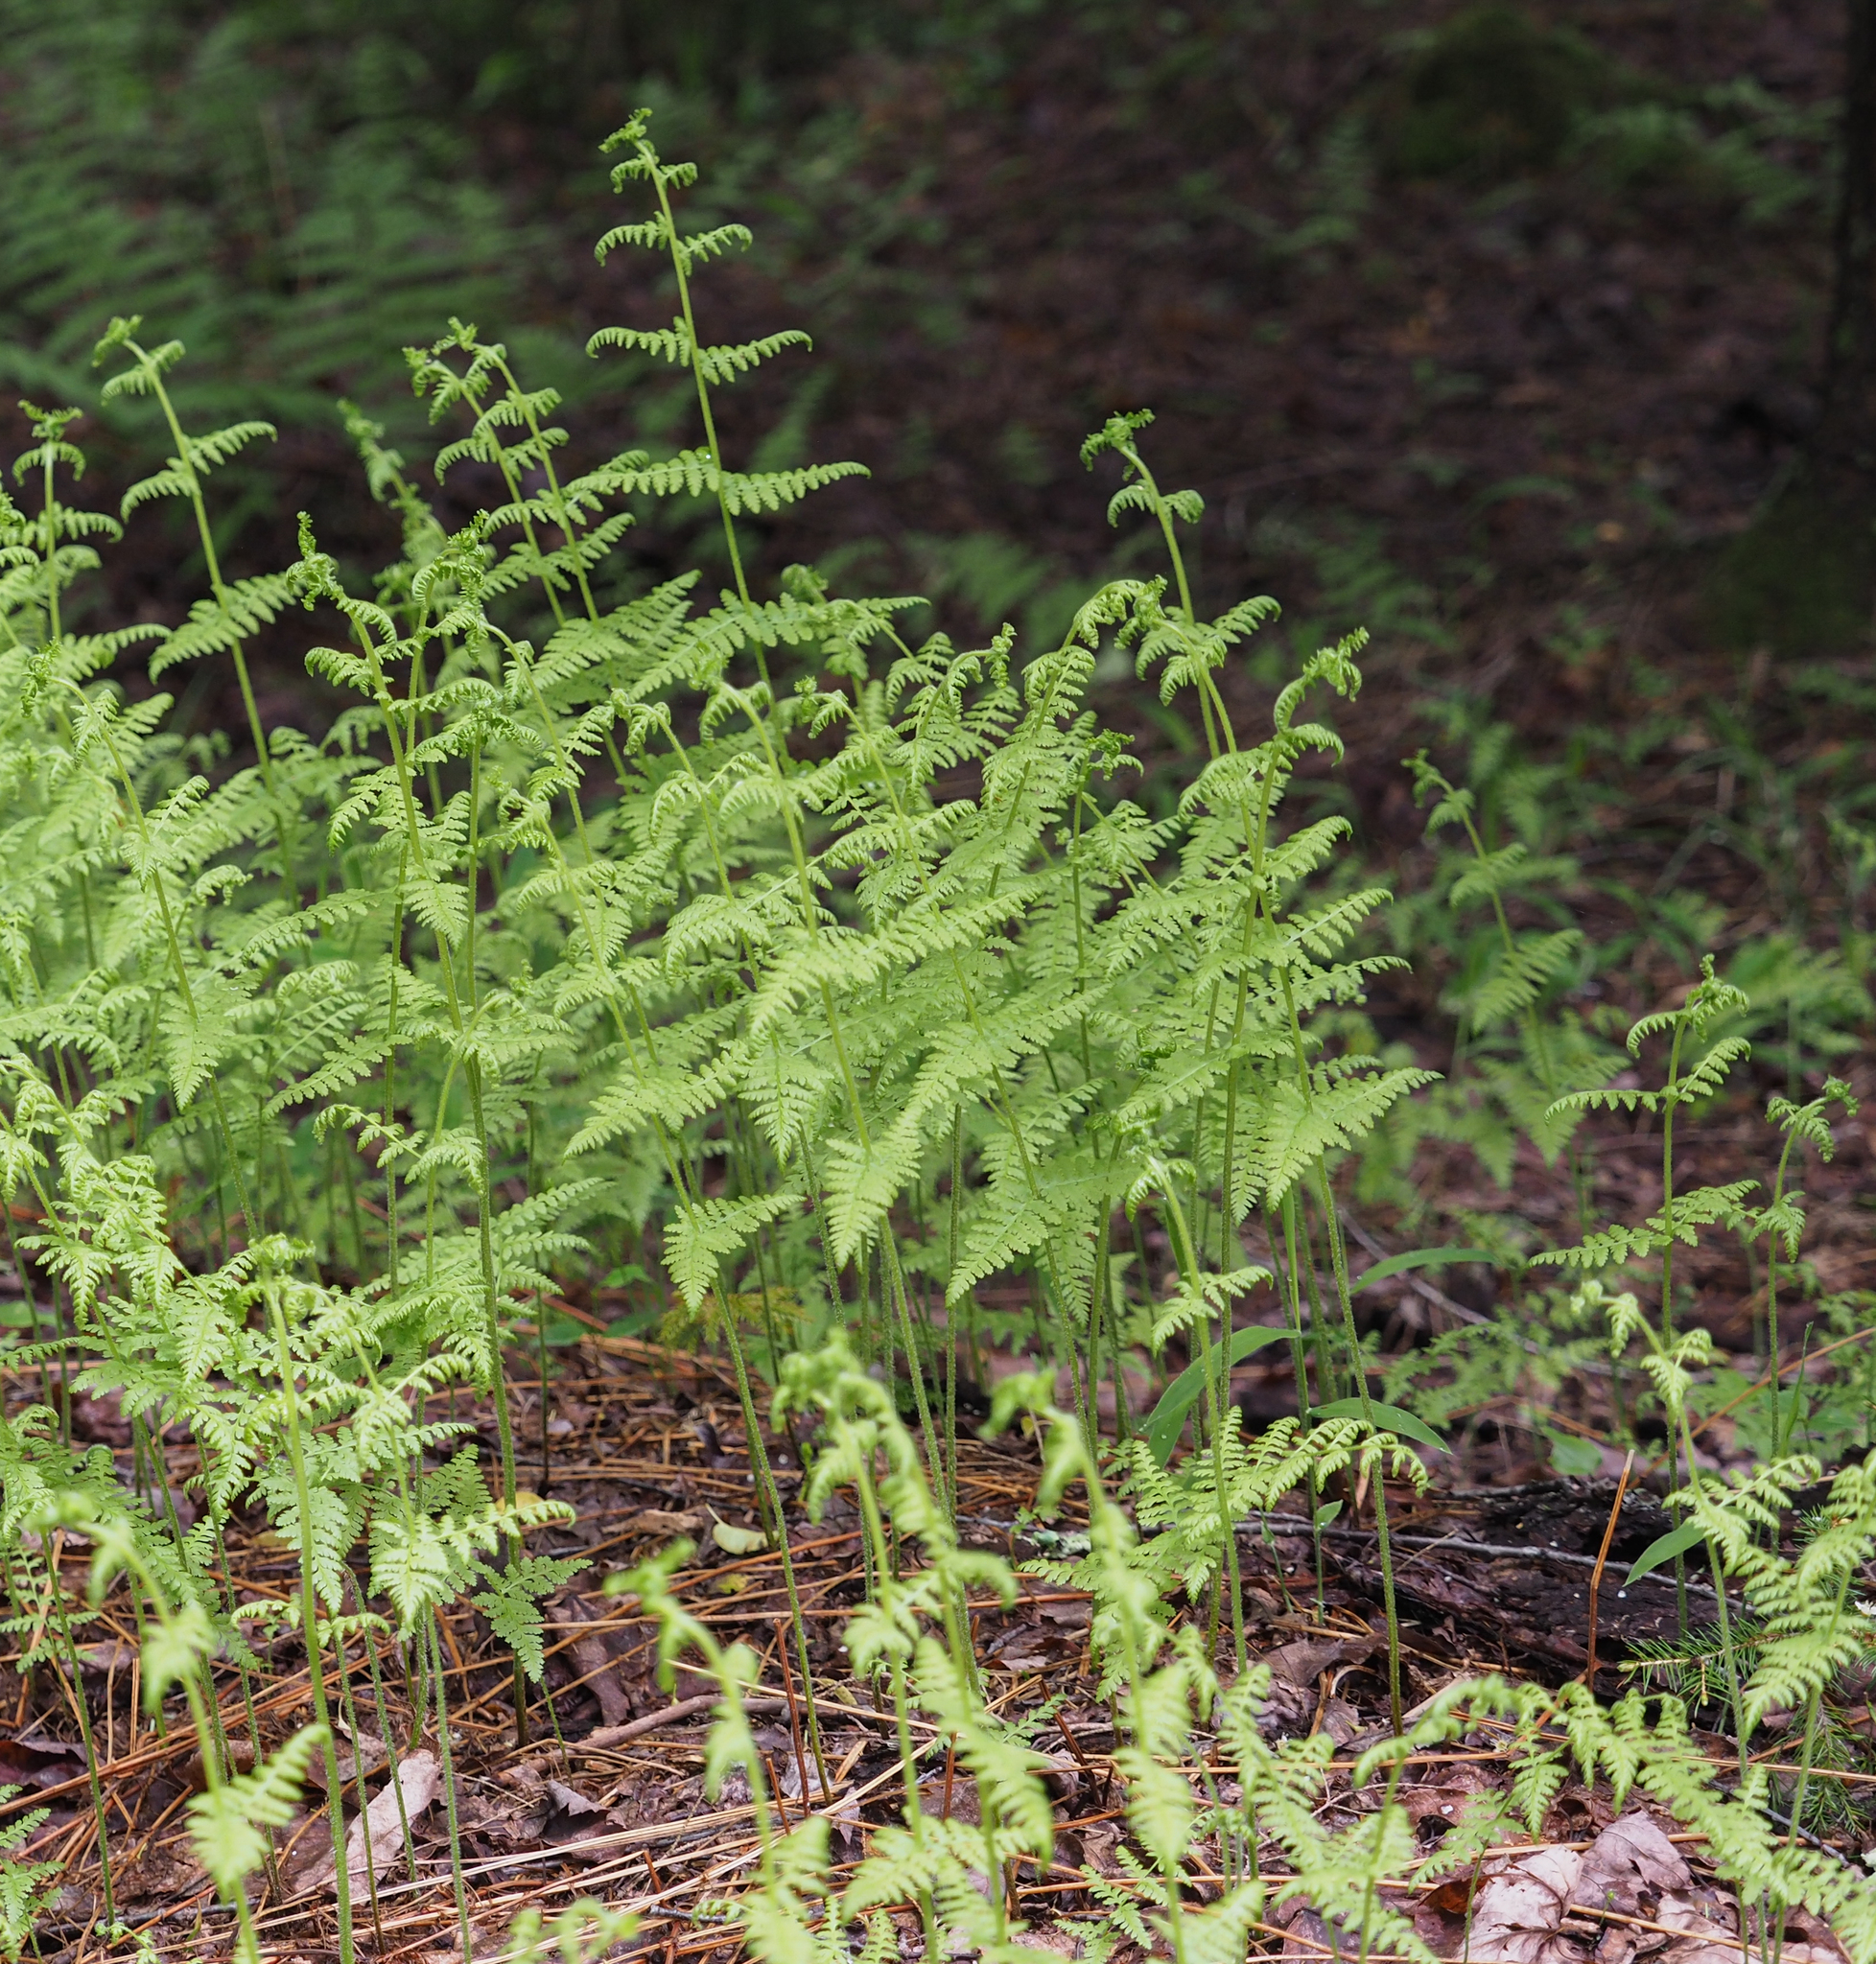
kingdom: Plantae
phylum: Tracheophyta
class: Polypodiopsida
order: Polypodiales
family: Dennstaedtiaceae
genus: Sitobolium
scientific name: Sitobolium punctilobum
